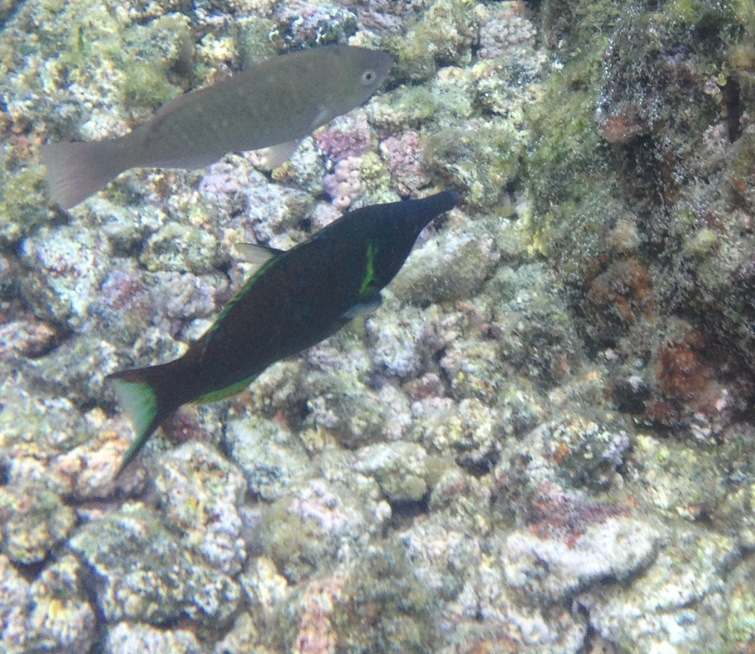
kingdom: Animalia
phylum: Chordata
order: Perciformes
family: Labridae
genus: Gomphosus
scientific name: Gomphosus varius
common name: Bird wrasse
